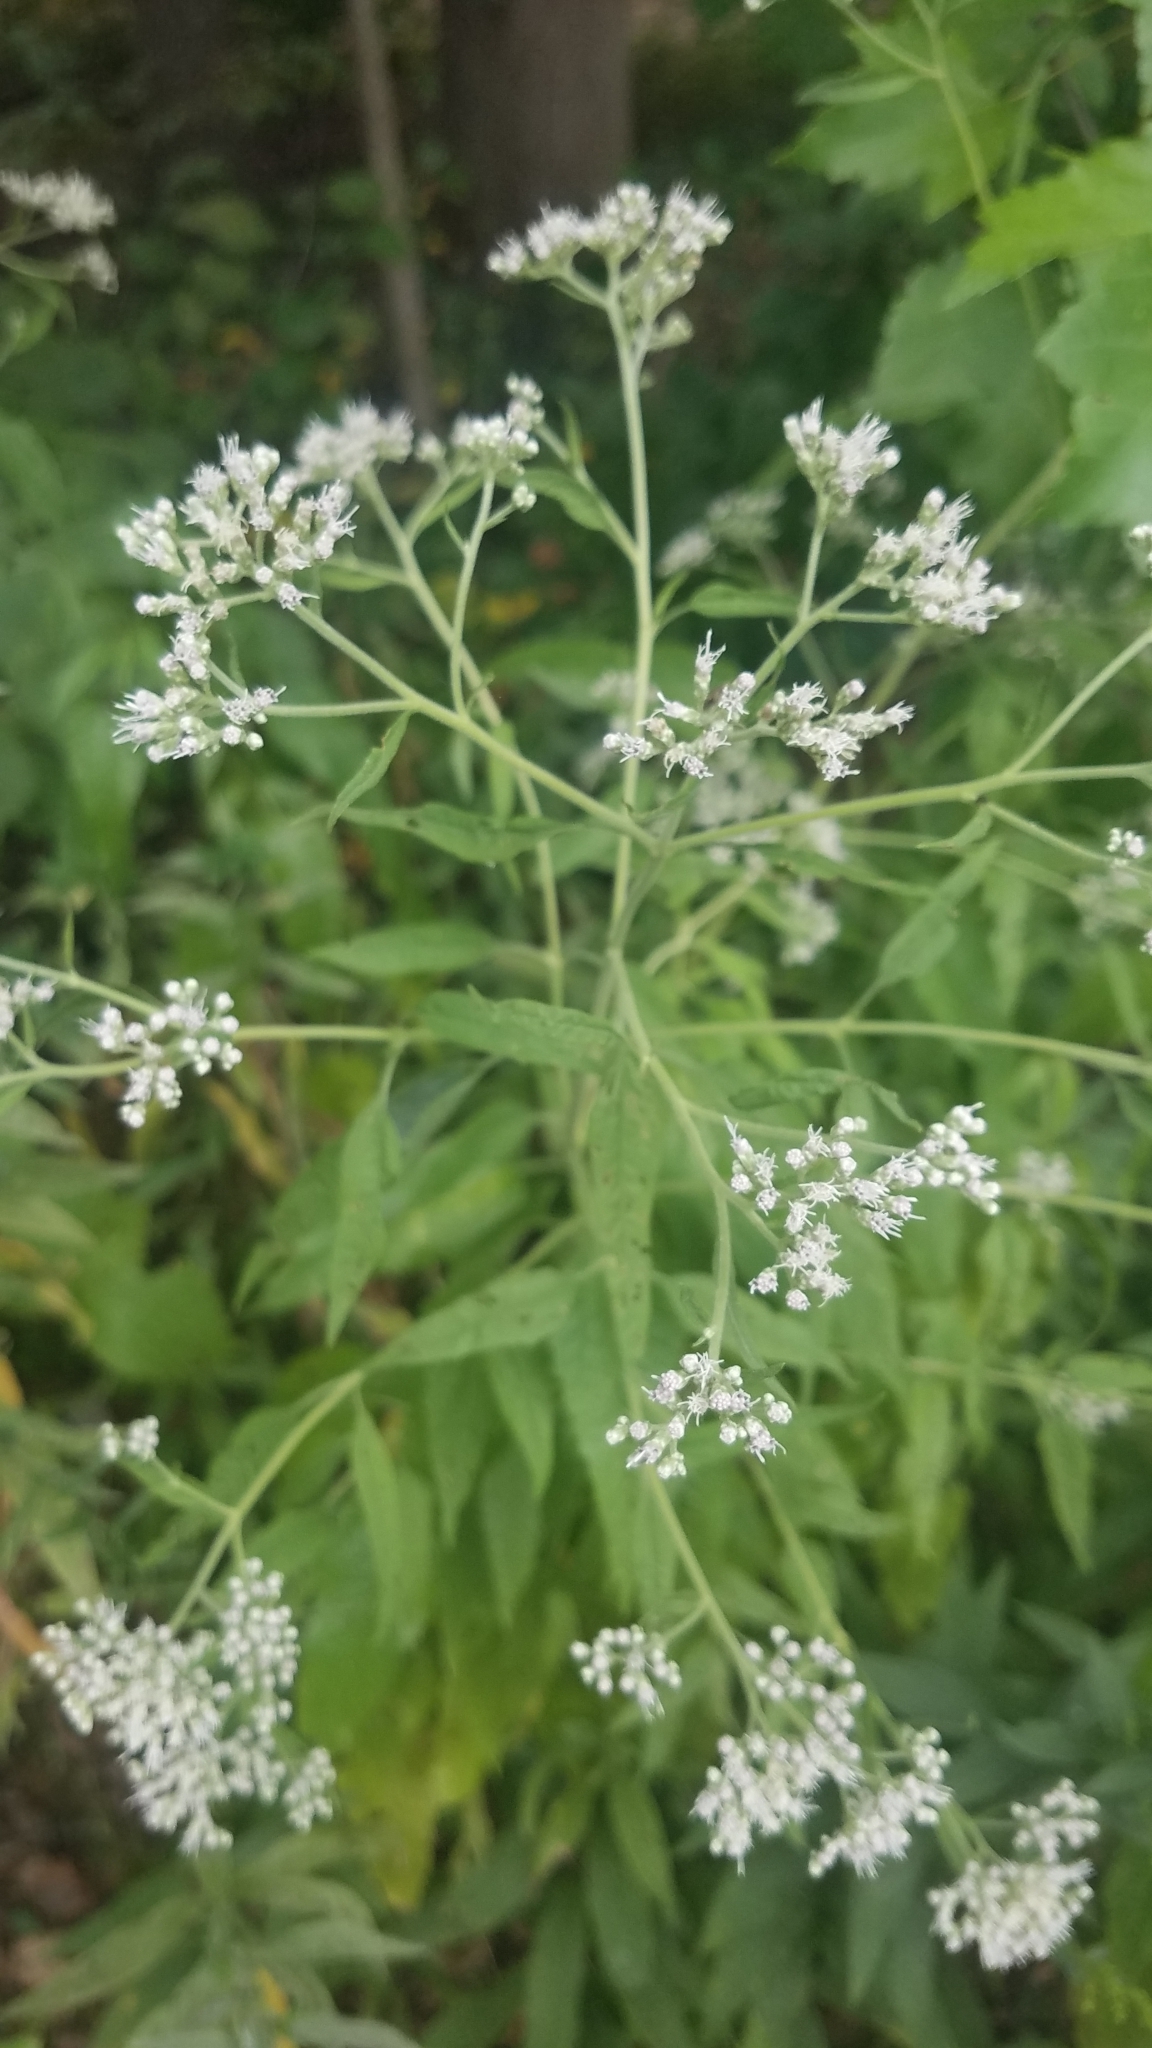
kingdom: Plantae
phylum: Tracheophyta
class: Magnoliopsida
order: Asterales
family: Asteraceae
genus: Eupatorium
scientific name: Eupatorium serotinum
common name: Late boneset
